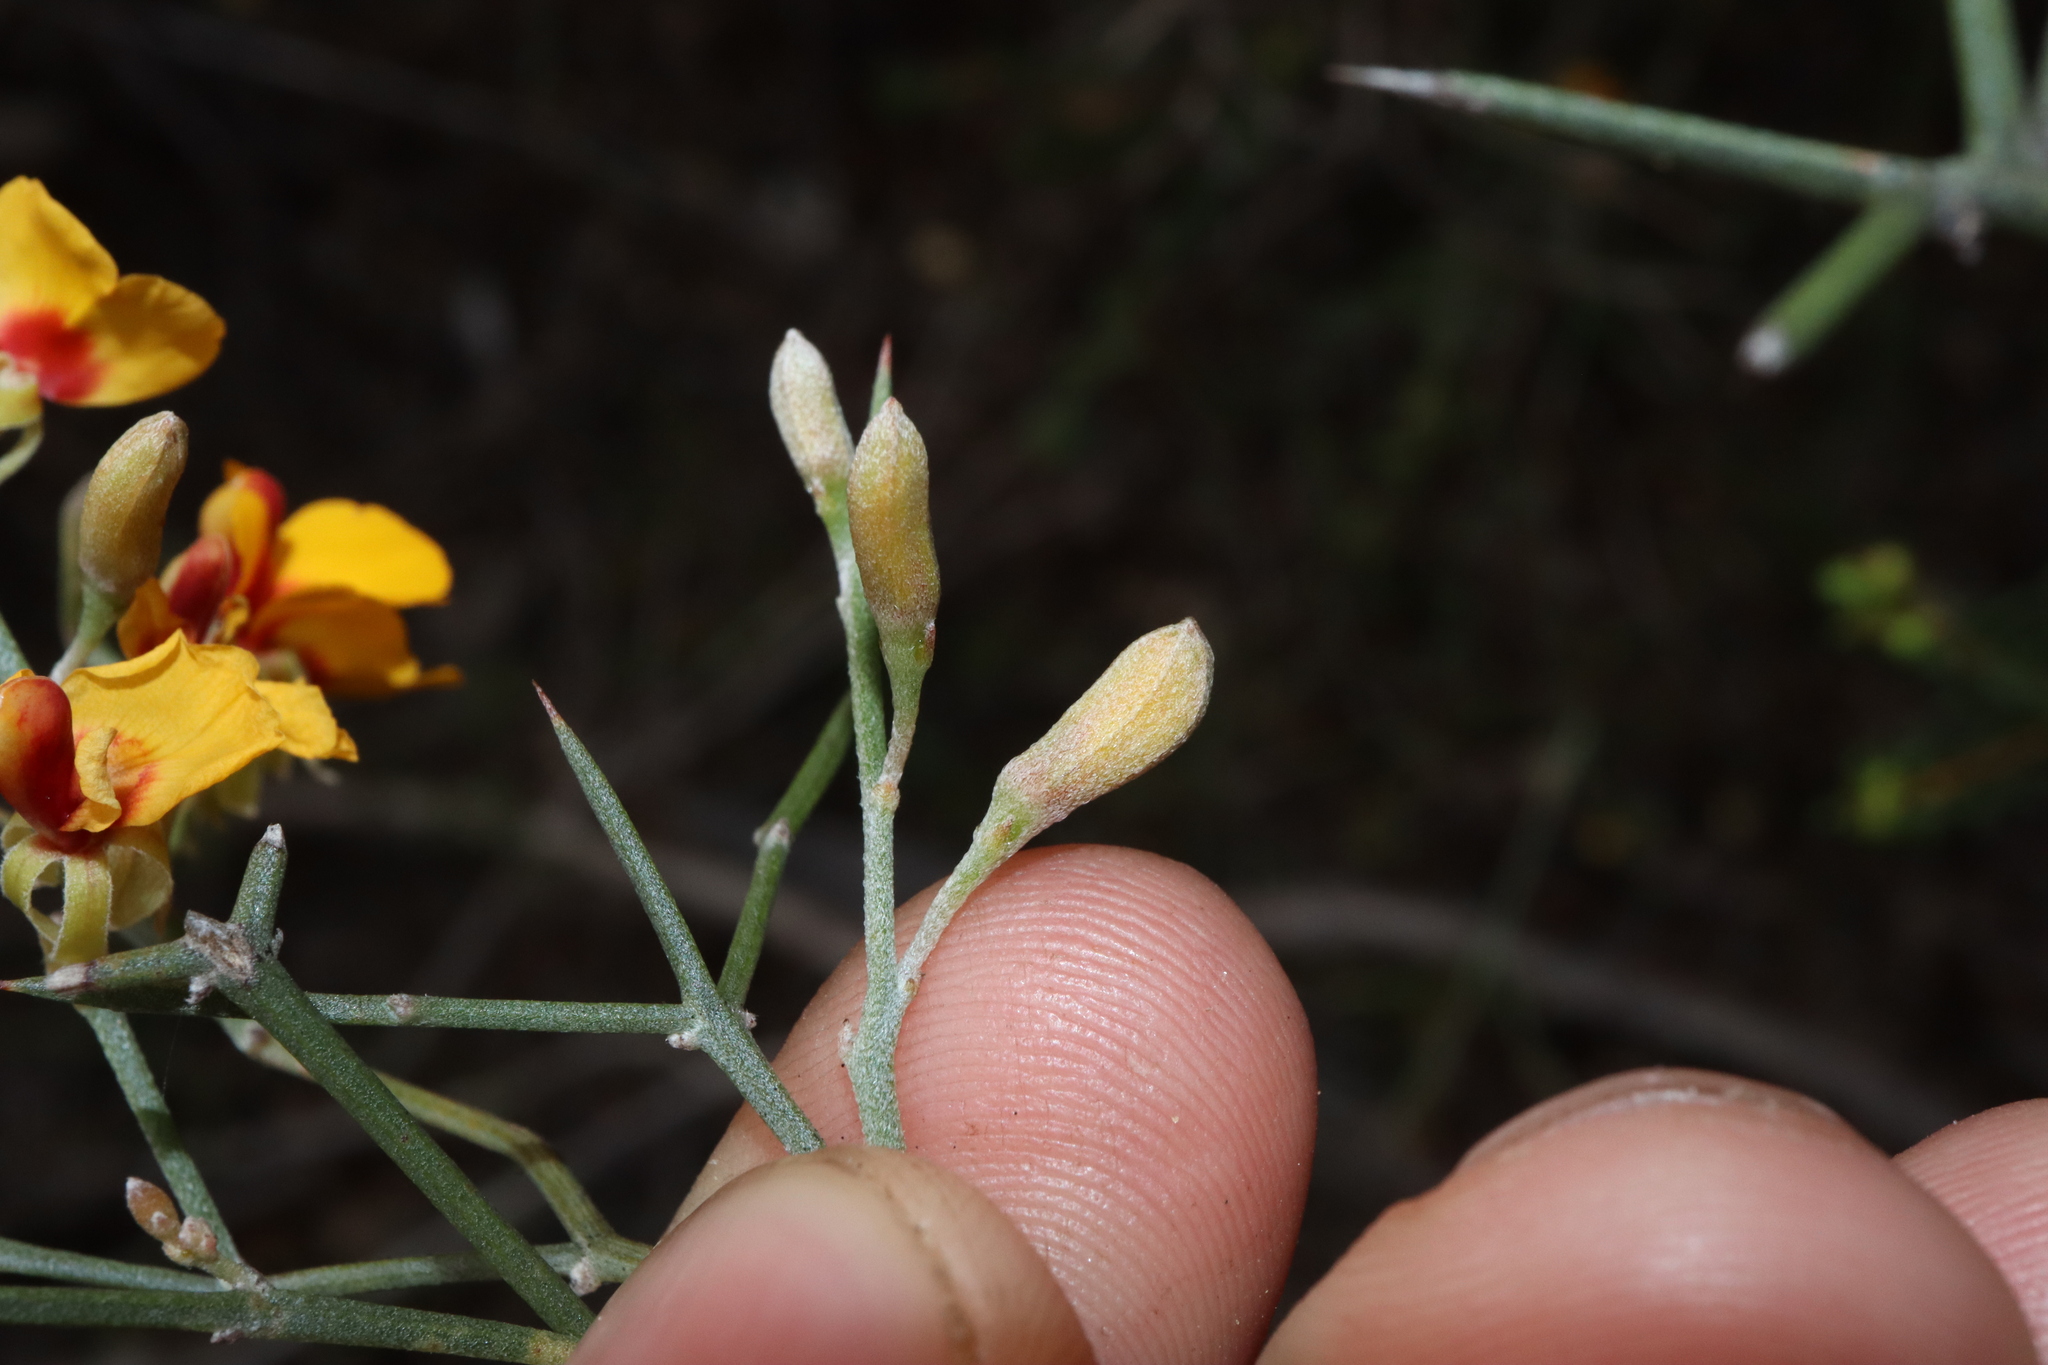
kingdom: Plantae
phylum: Tracheophyta
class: Magnoliopsida
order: Fabales
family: Fabaceae
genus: Jacksonia
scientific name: Jacksonia spinosa
